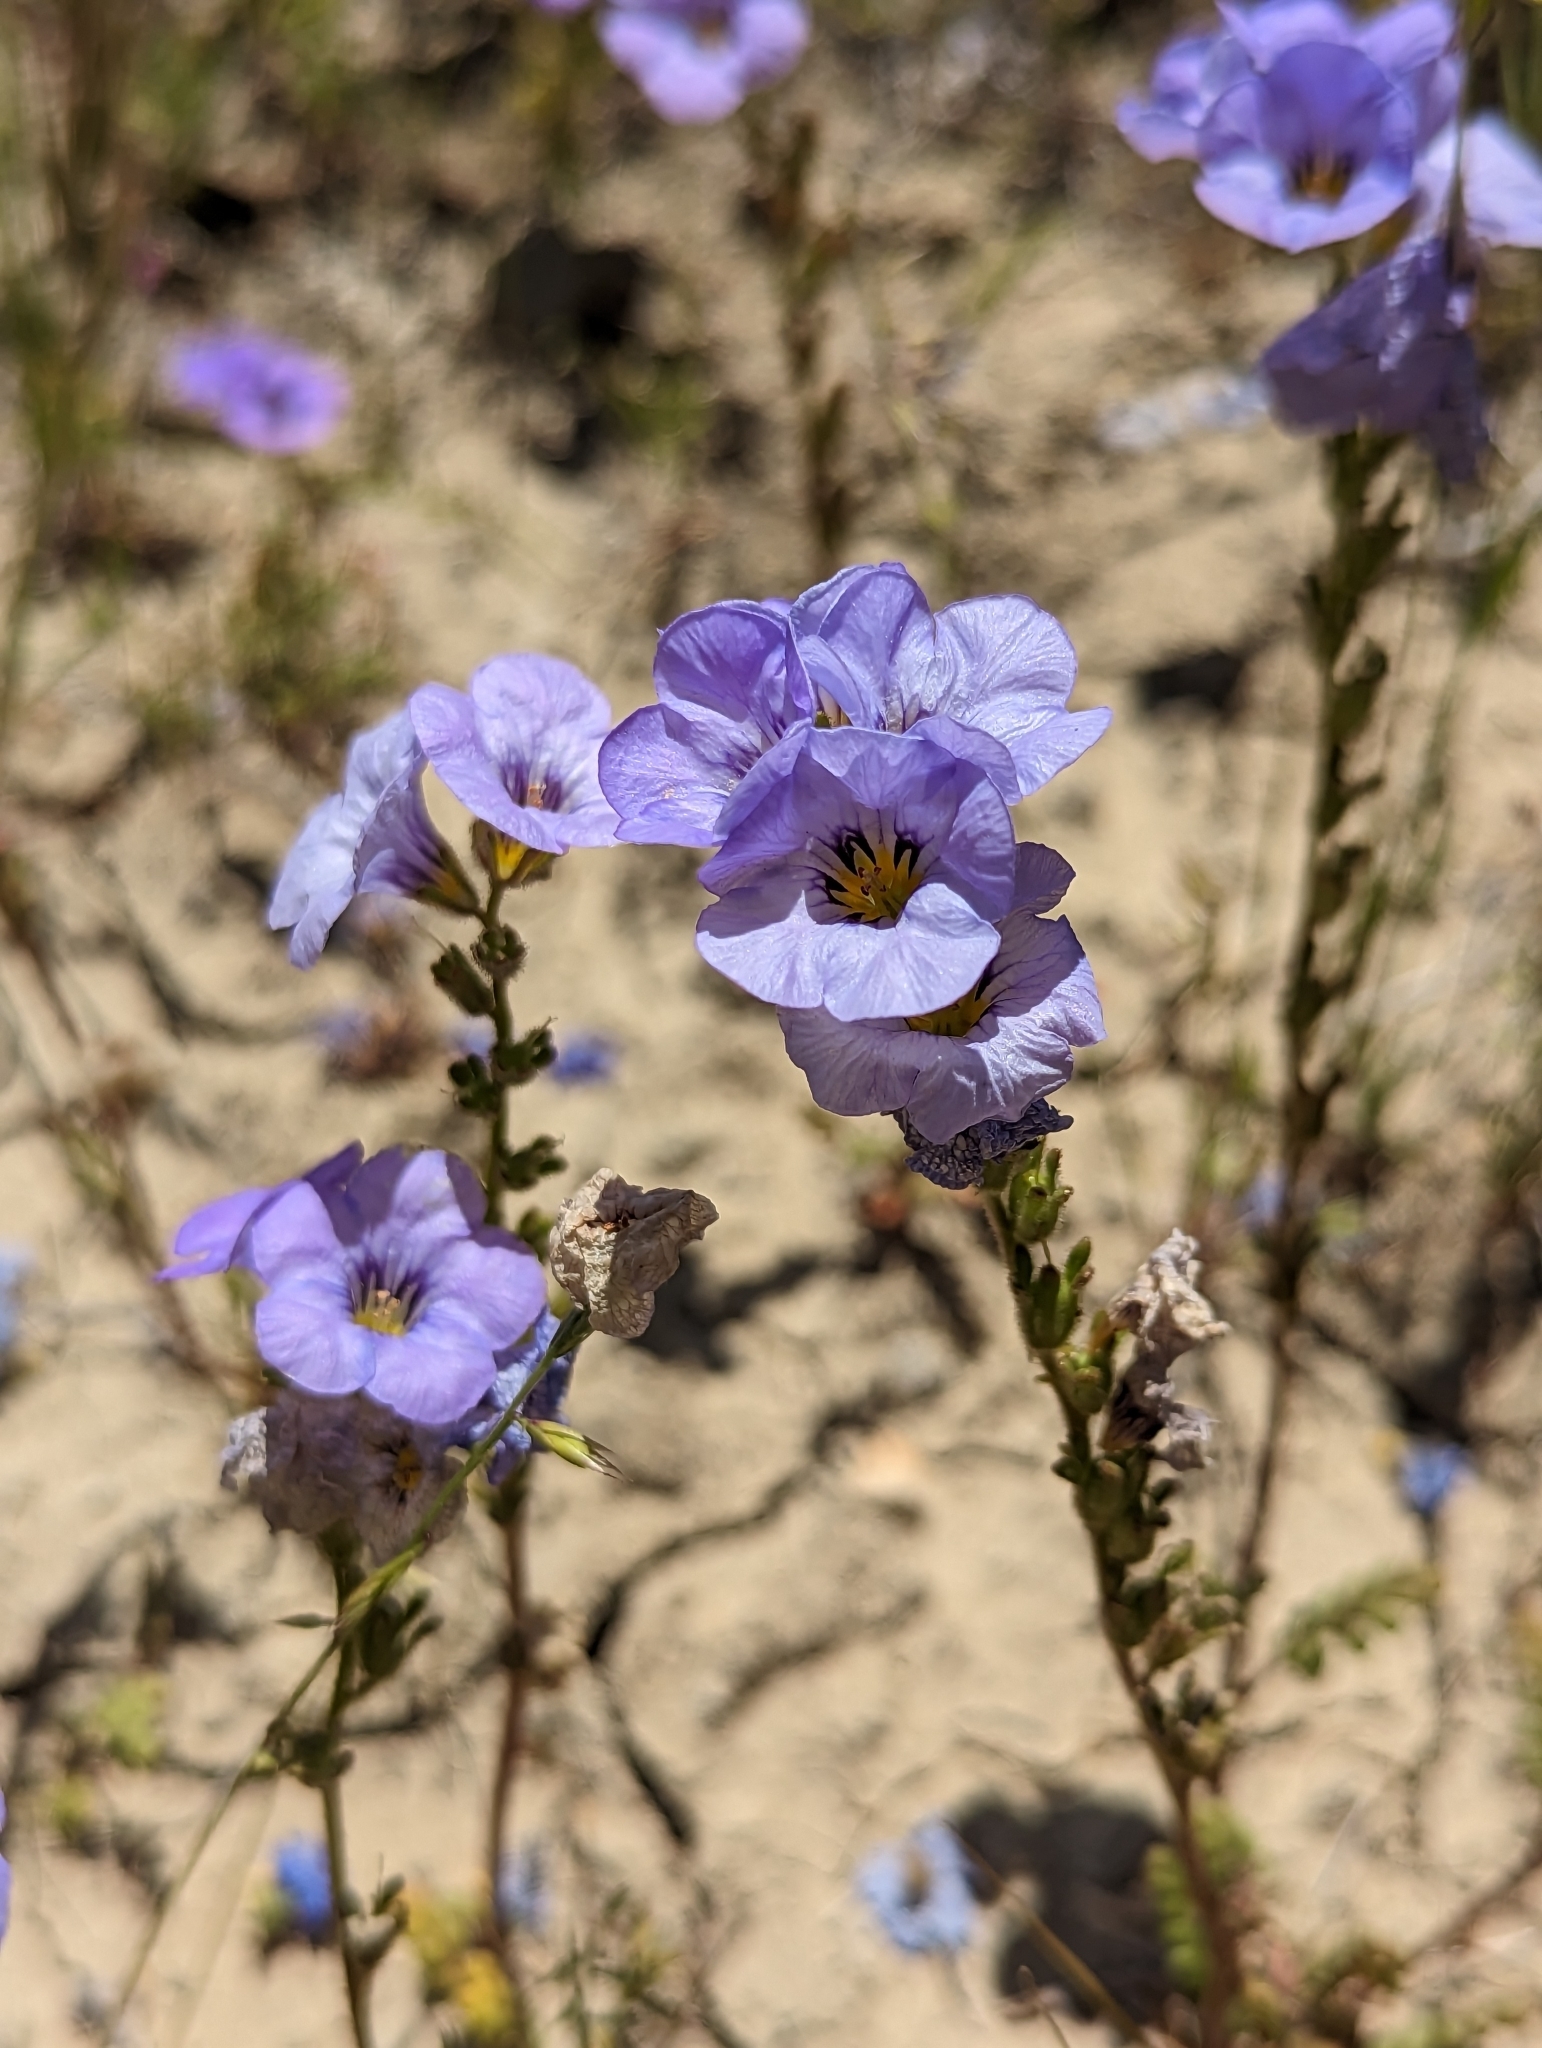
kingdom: Plantae
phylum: Tracheophyta
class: Magnoliopsida
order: Boraginales
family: Hydrophyllaceae
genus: Phacelia
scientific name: Phacelia fremontii
